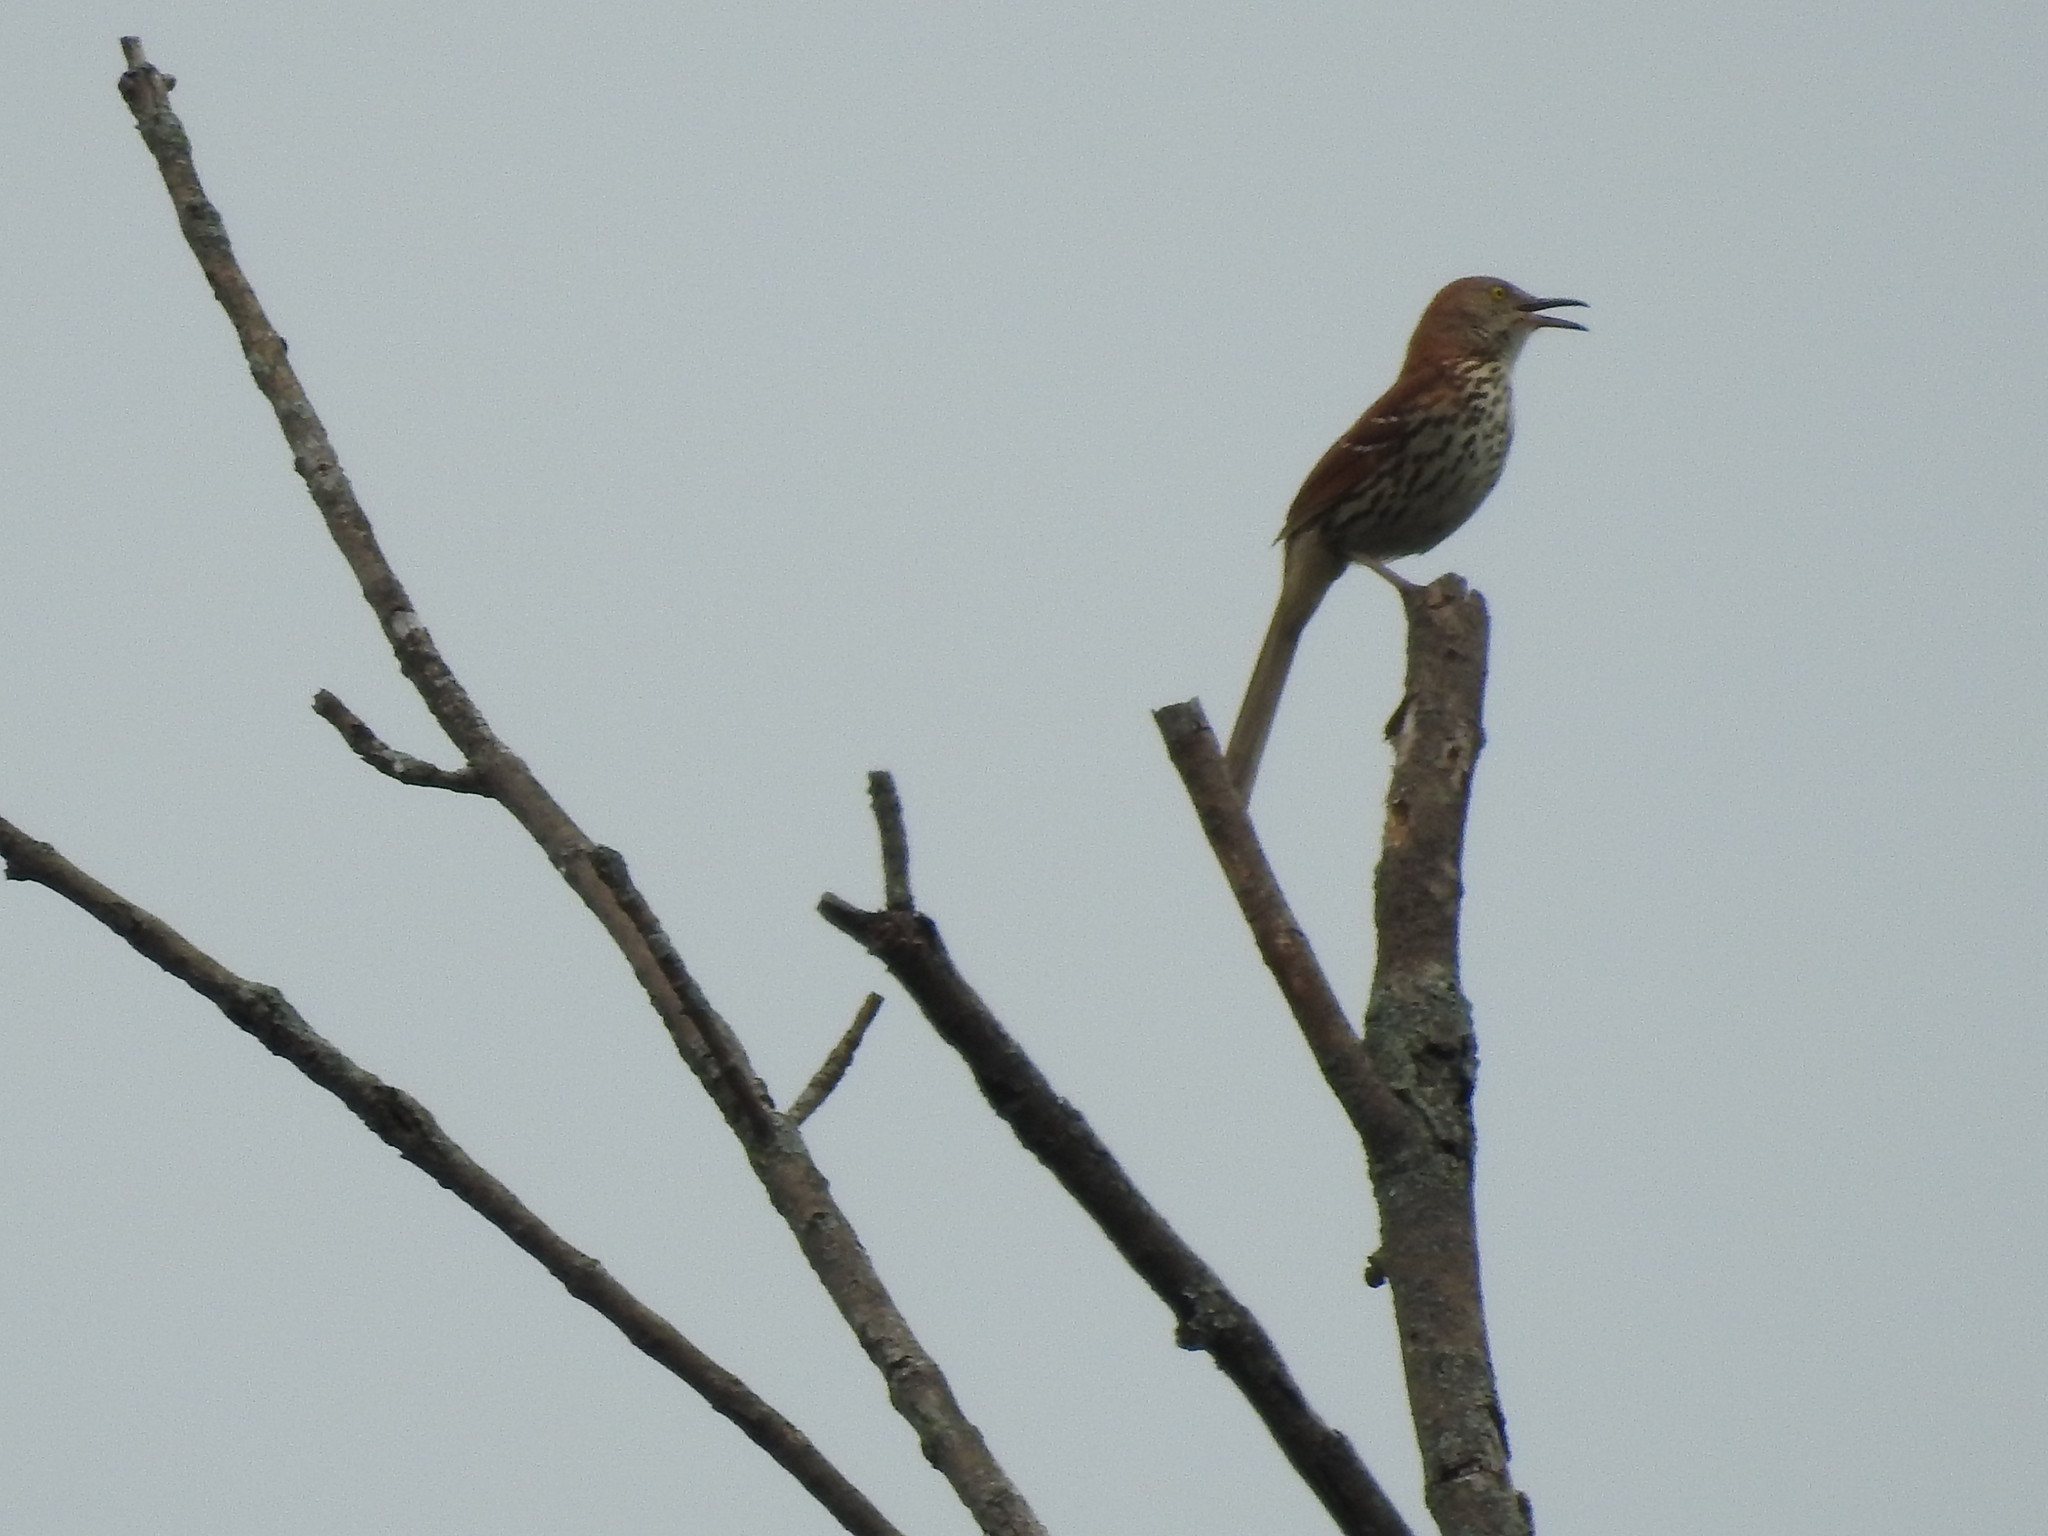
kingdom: Animalia
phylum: Chordata
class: Aves
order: Passeriformes
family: Mimidae
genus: Toxostoma
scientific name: Toxostoma rufum
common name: Brown thrasher
